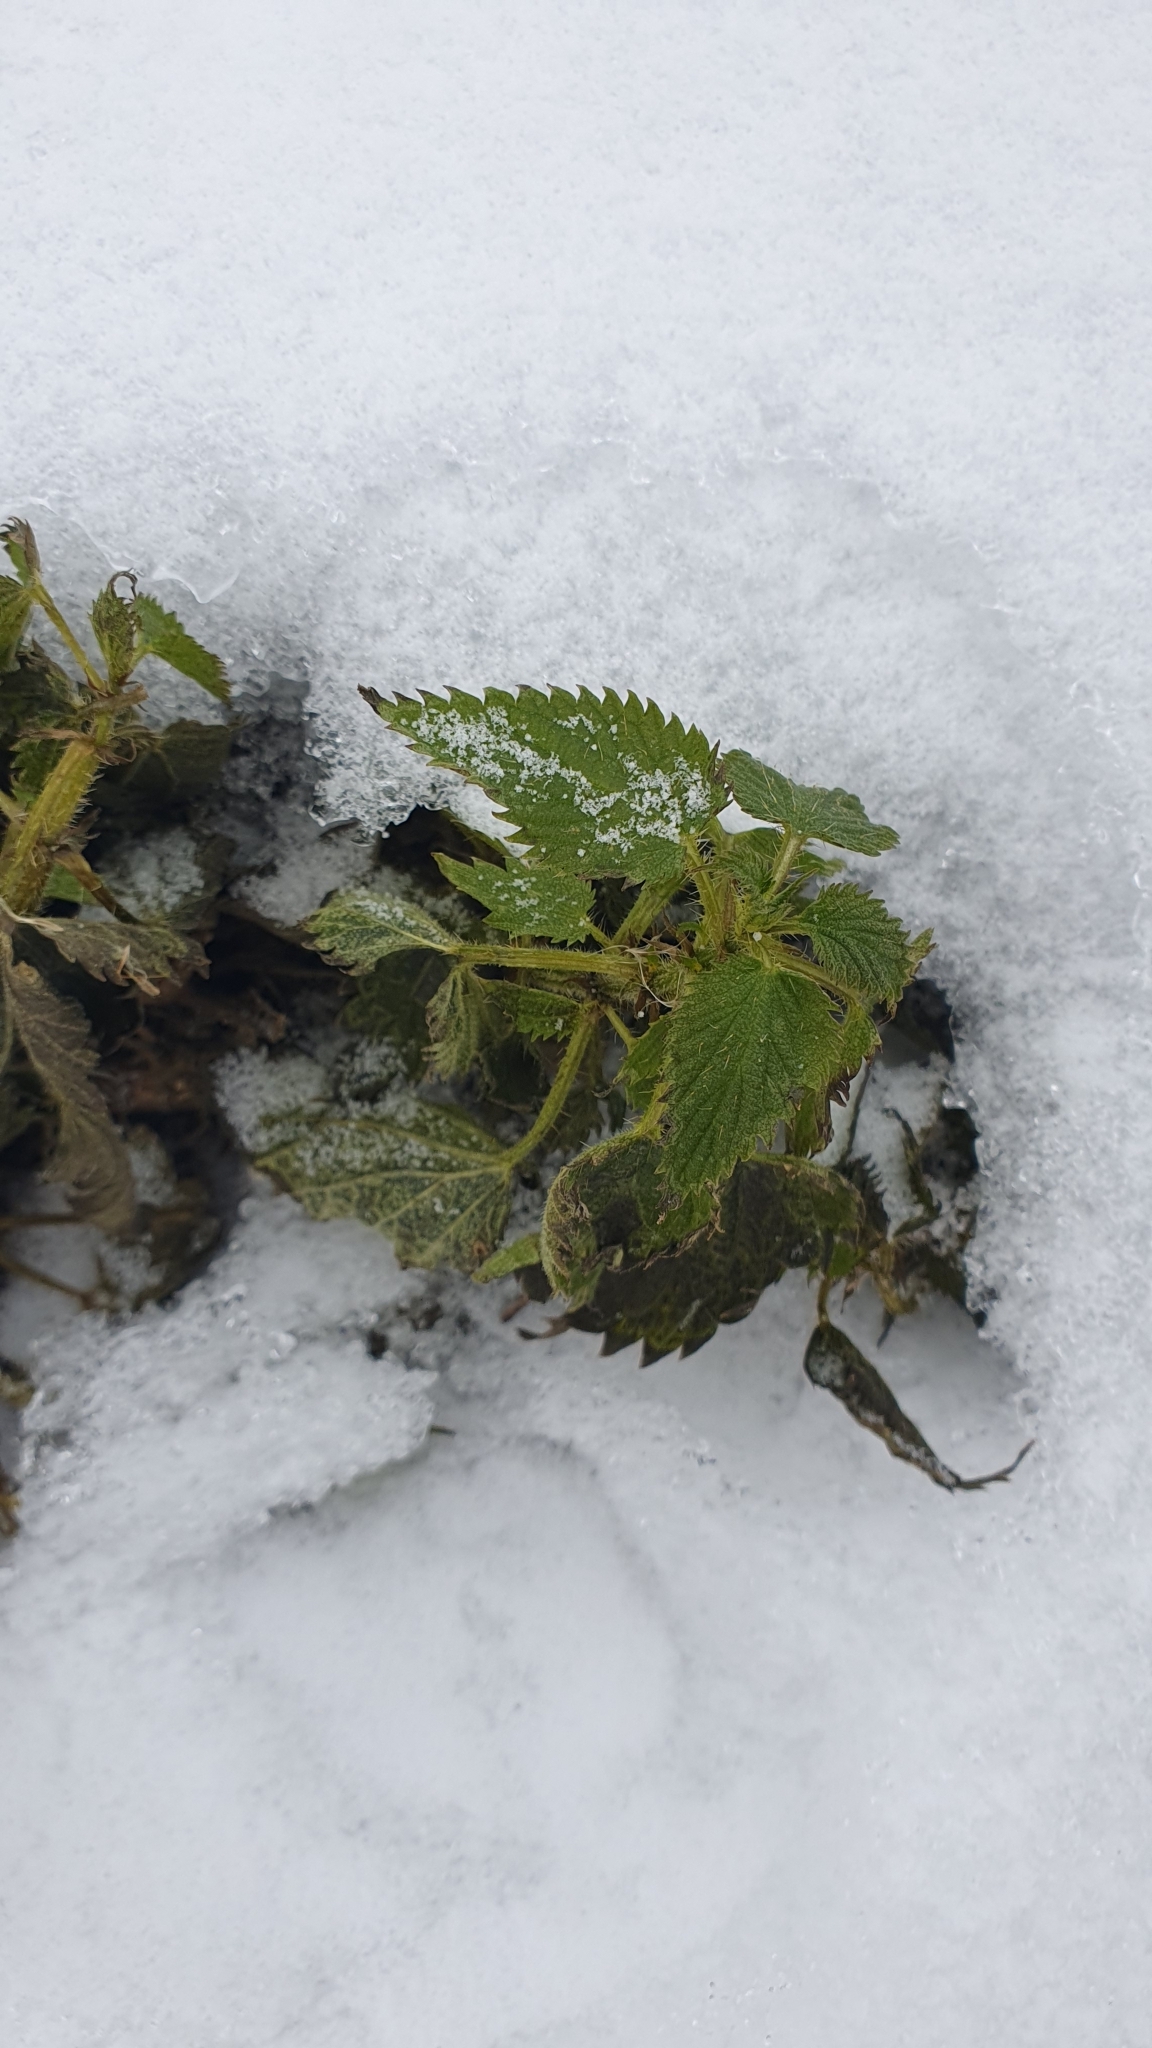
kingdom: Plantae
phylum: Tracheophyta
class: Magnoliopsida
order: Rosales
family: Urticaceae
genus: Urtica
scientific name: Urtica dioica
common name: Common nettle
